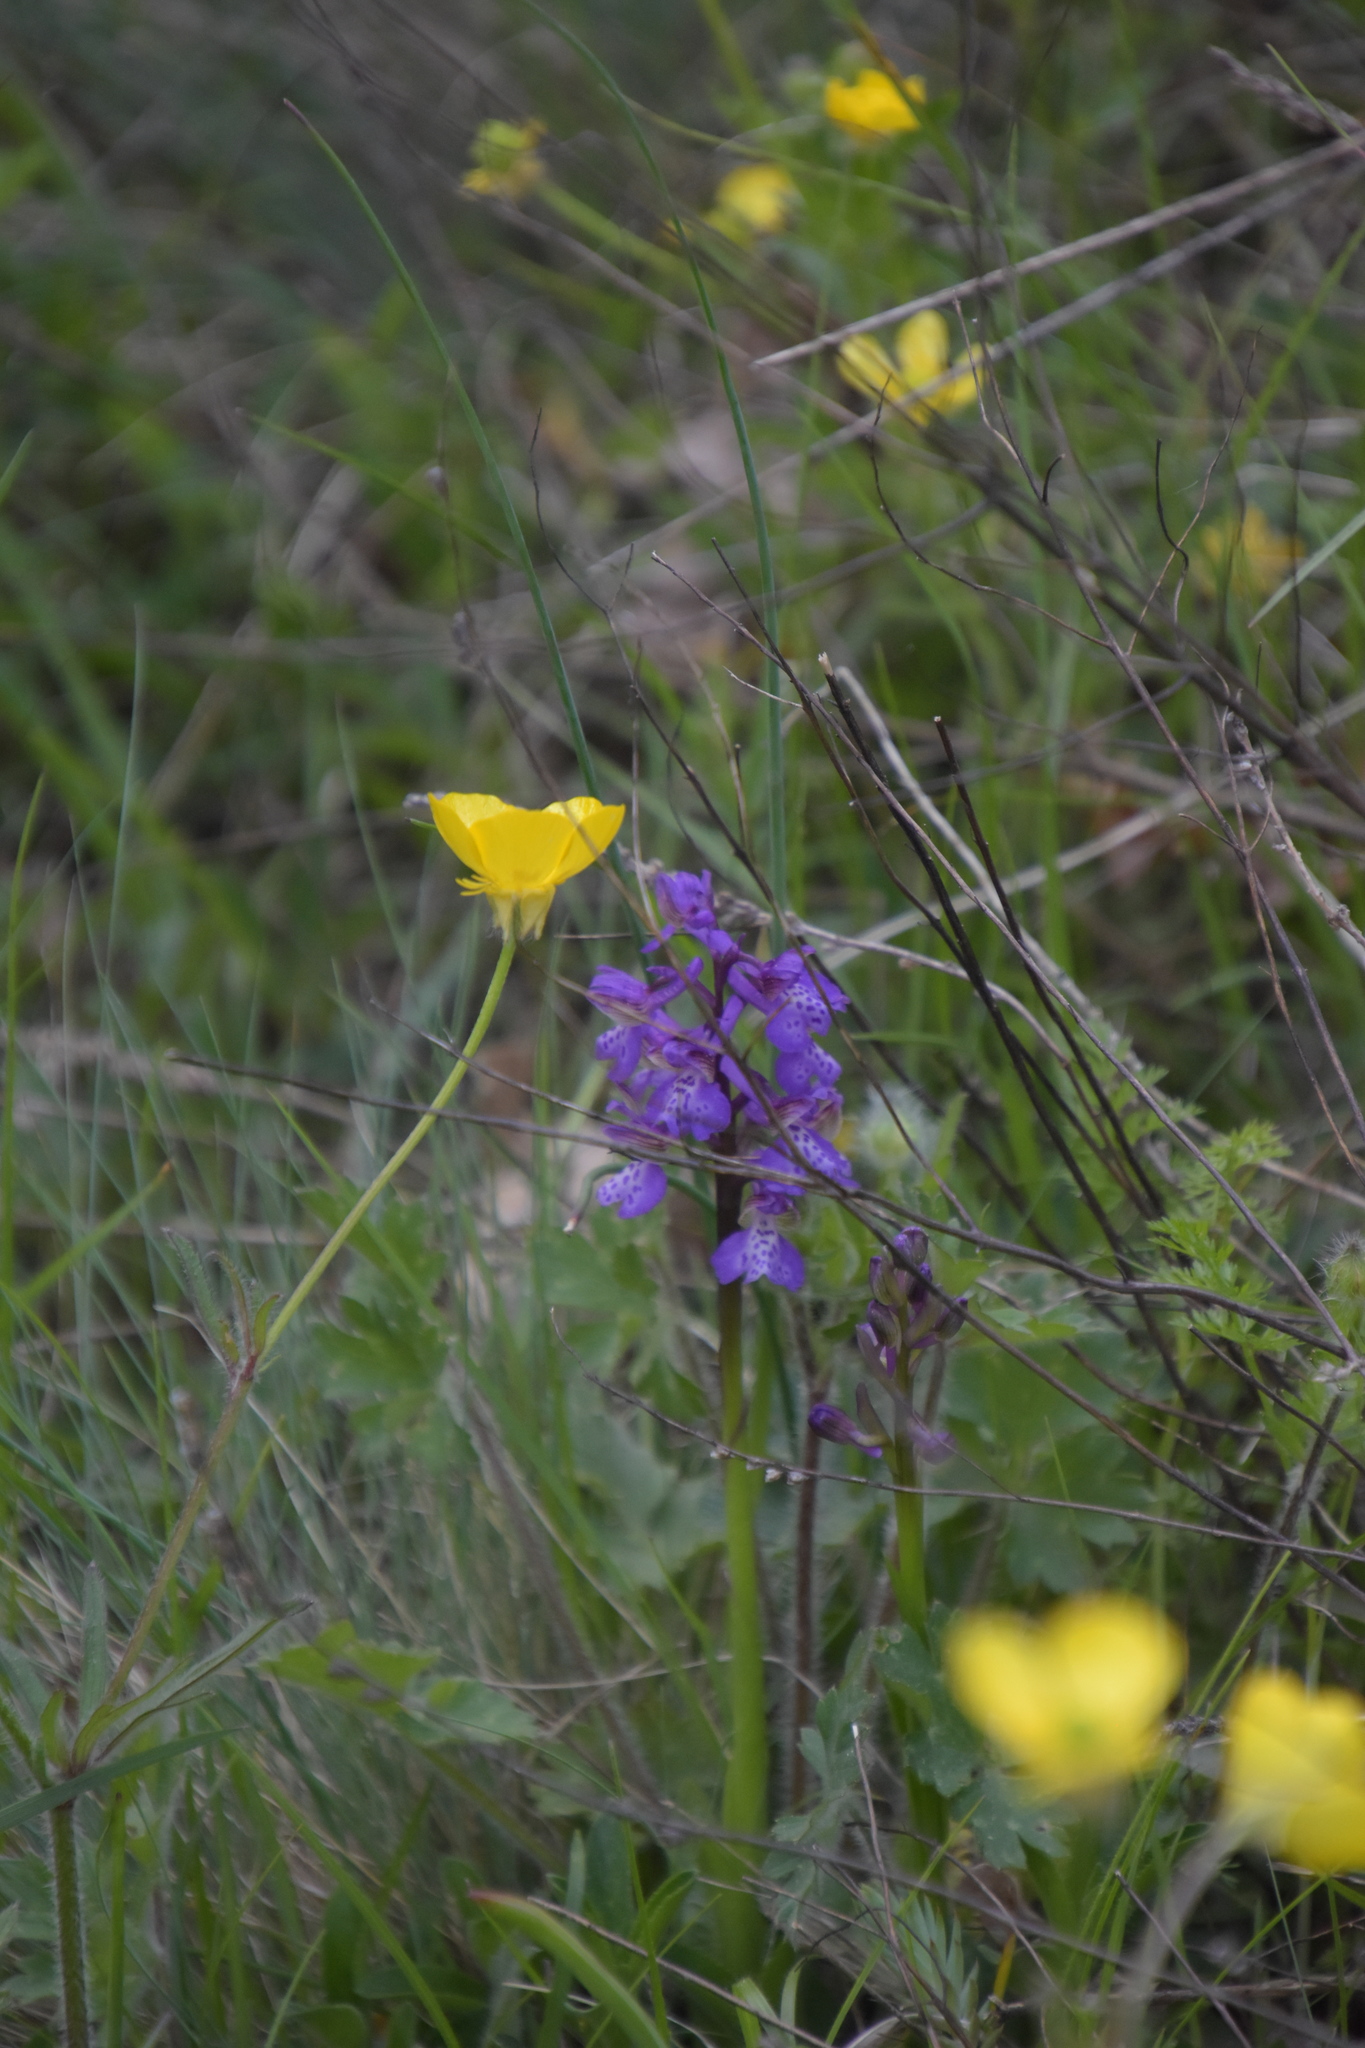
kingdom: Plantae
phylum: Tracheophyta
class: Liliopsida
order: Asparagales
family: Orchidaceae
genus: Anacamptis
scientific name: Anacamptis morio
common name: Green-winged orchid
